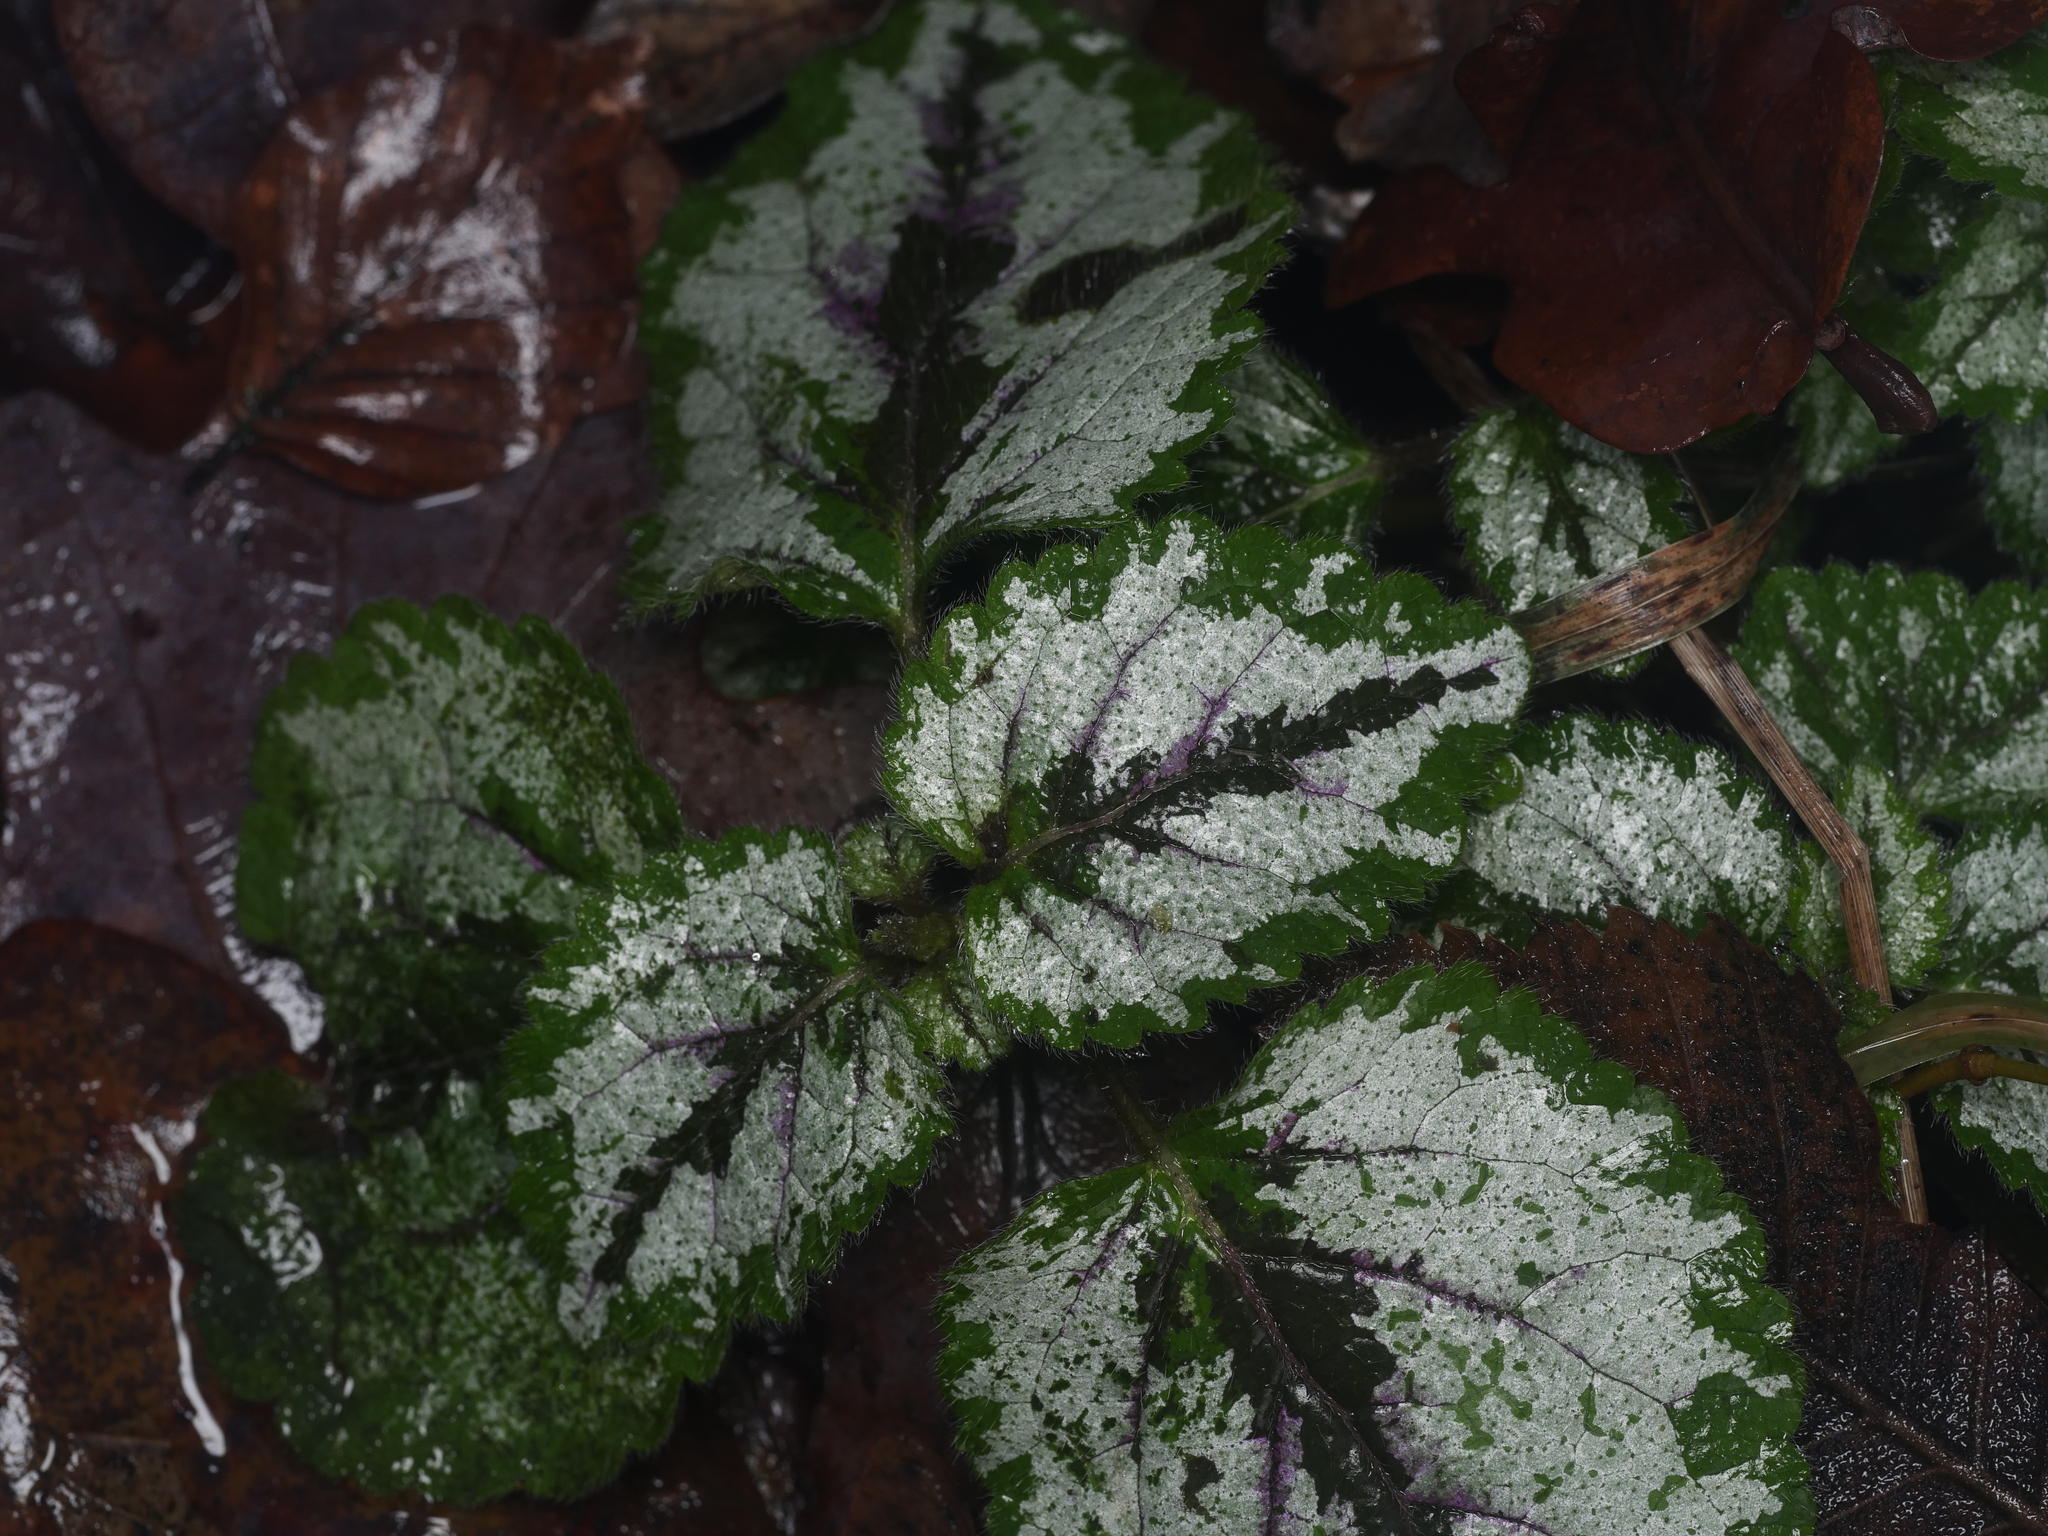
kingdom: Plantae
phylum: Tracheophyta
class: Magnoliopsida
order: Lamiales
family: Lamiaceae
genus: Lamium
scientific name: Lamium galeobdolon
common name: Yellow archangel
